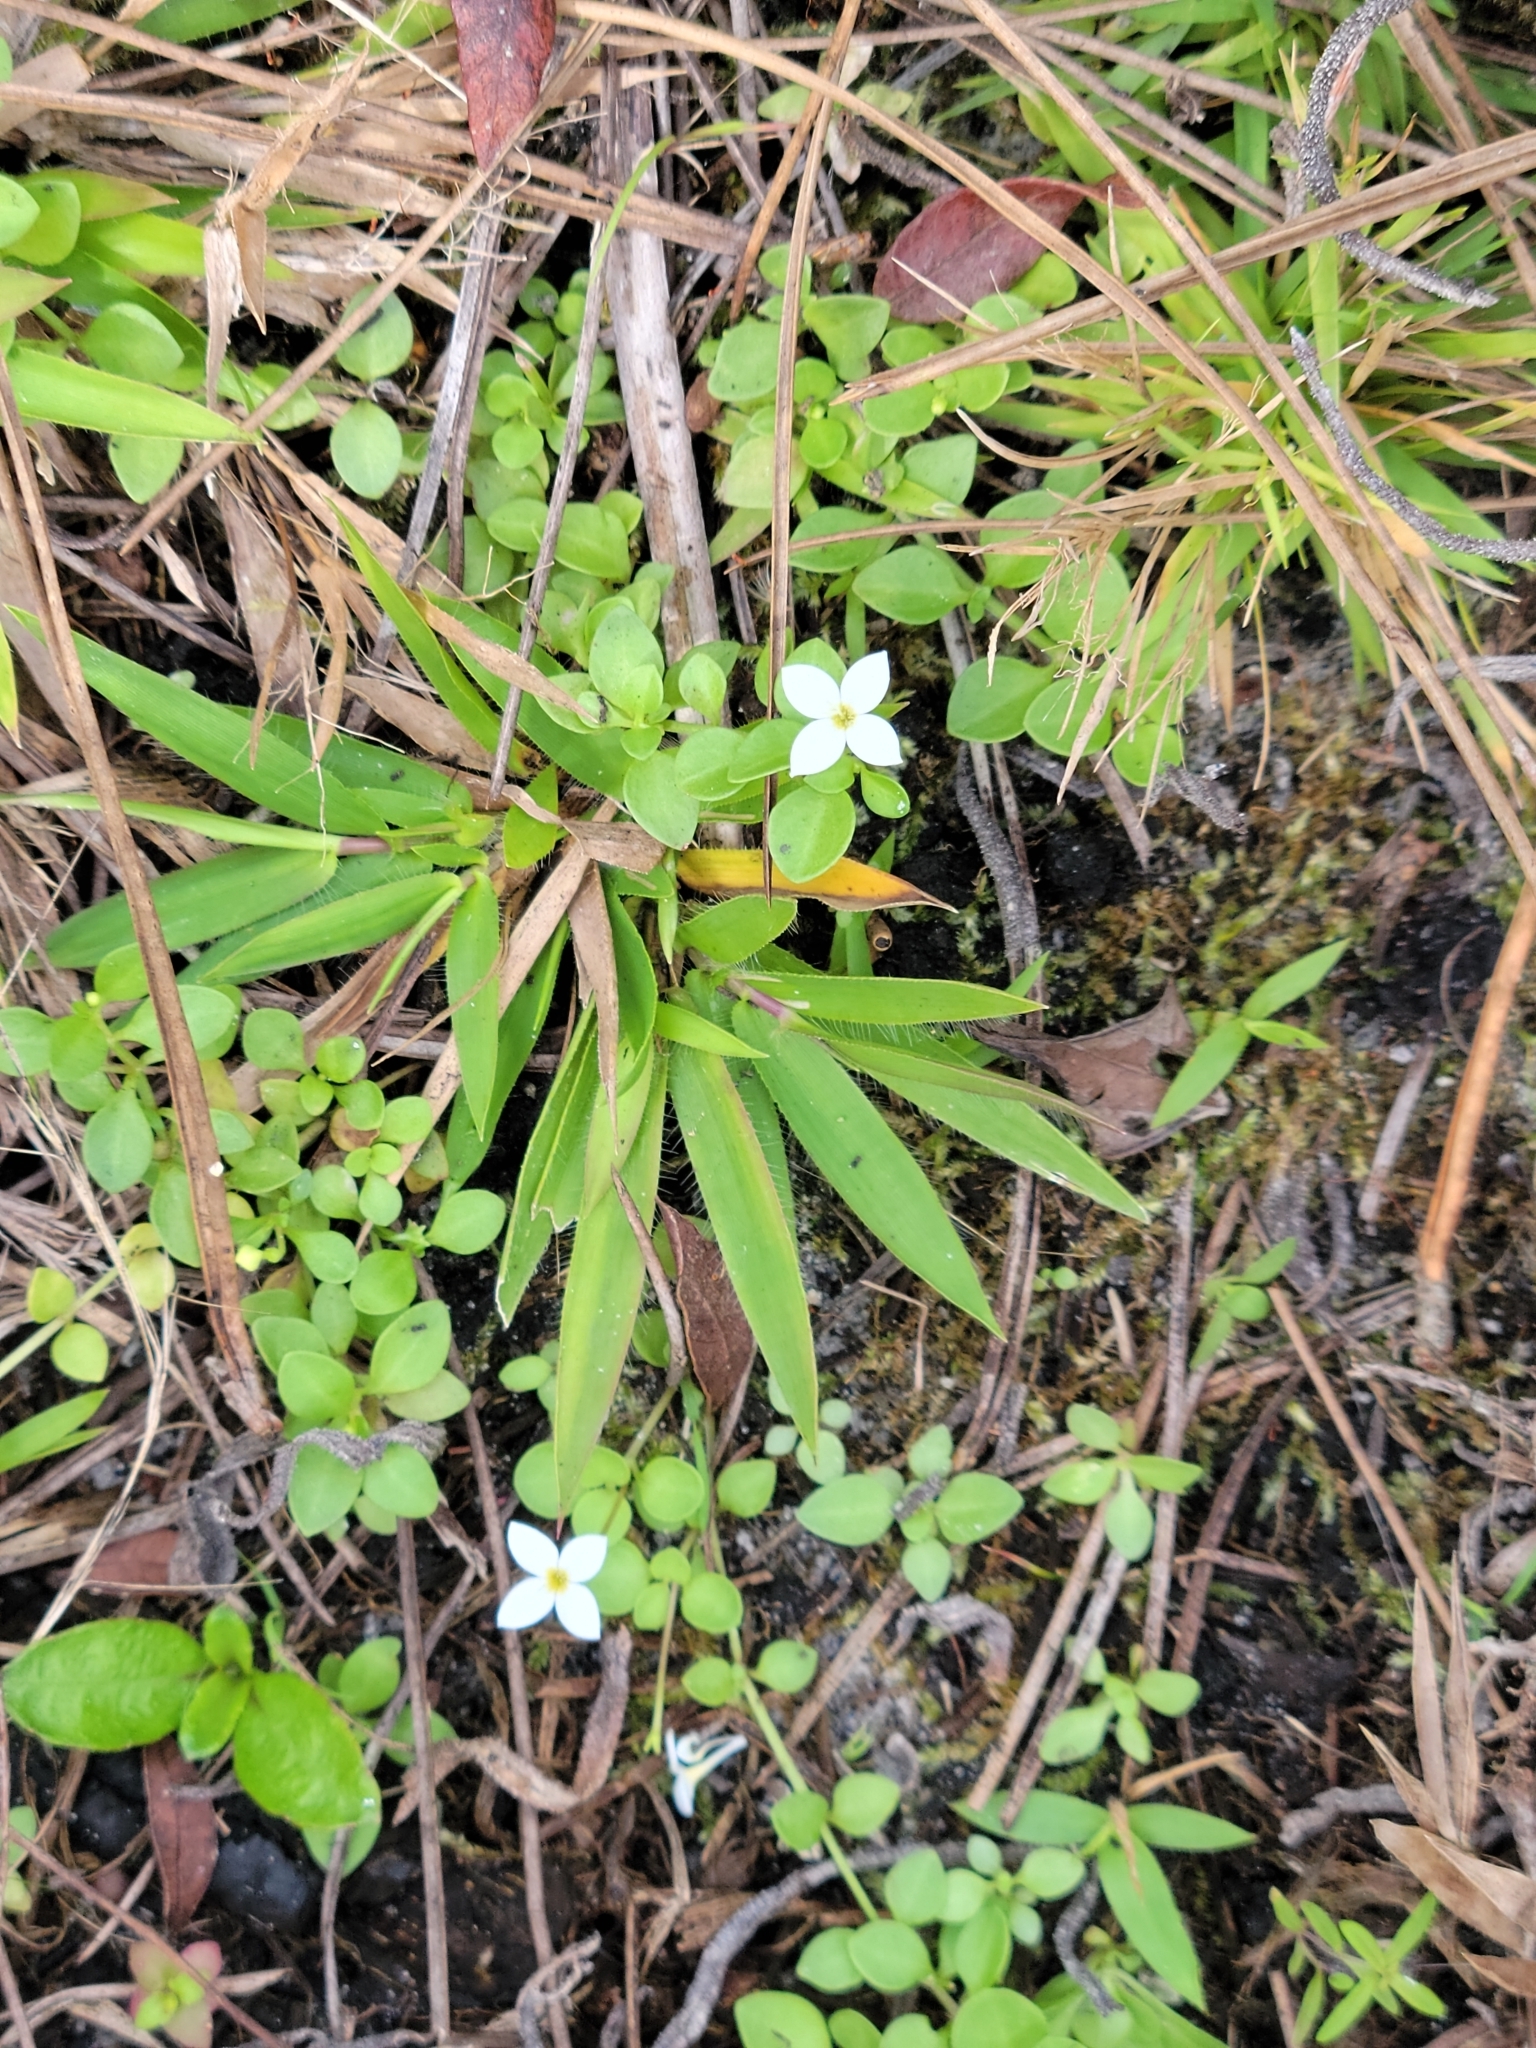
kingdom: Plantae
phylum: Tracheophyta
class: Magnoliopsida
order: Gentianales
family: Rubiaceae
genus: Houstonia
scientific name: Houstonia procumbens
